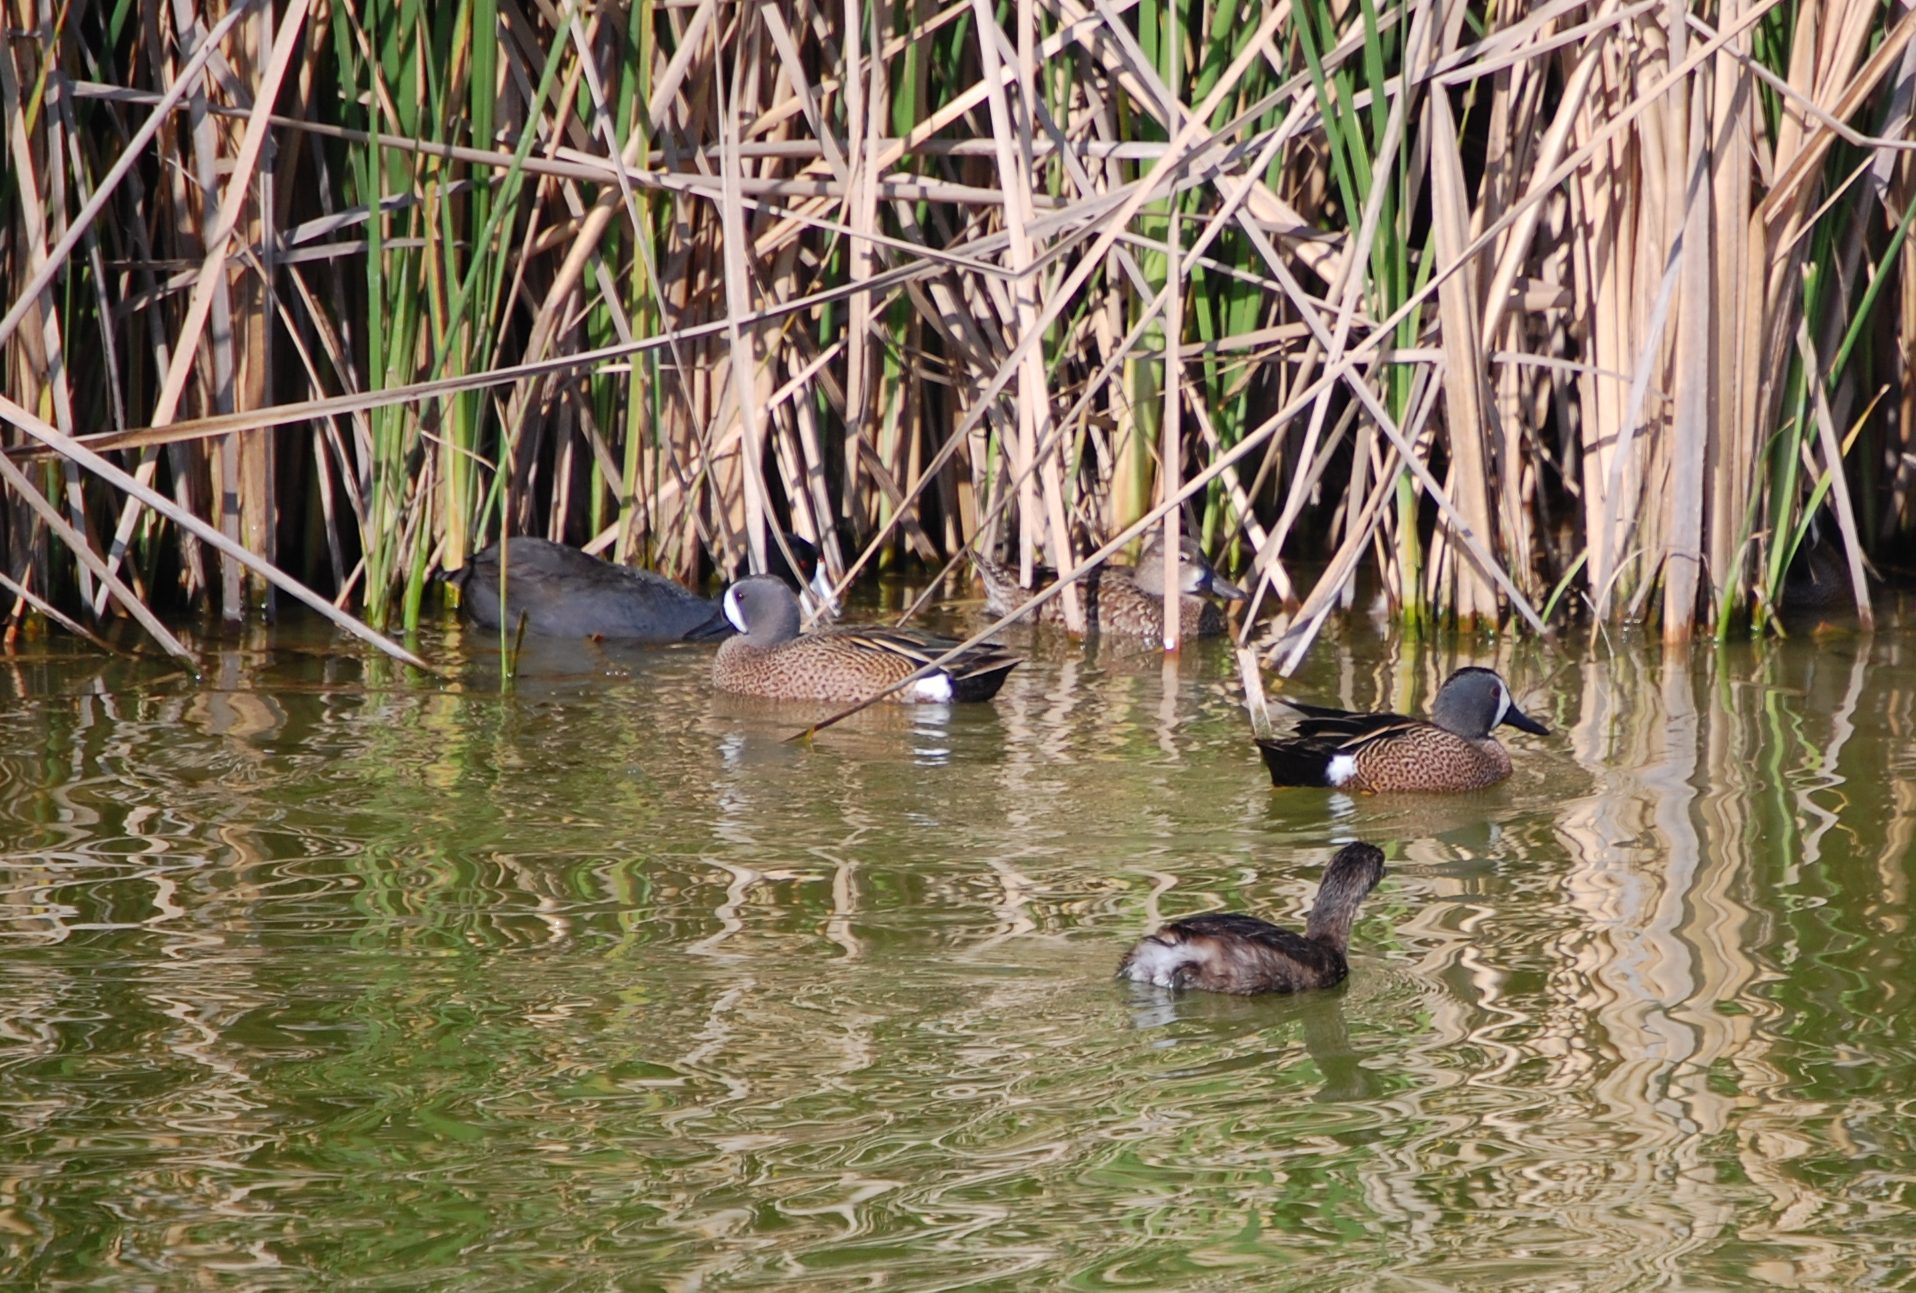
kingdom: Animalia
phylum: Chordata
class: Aves
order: Gruiformes
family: Rallidae
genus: Fulica
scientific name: Fulica americana
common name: American coot
